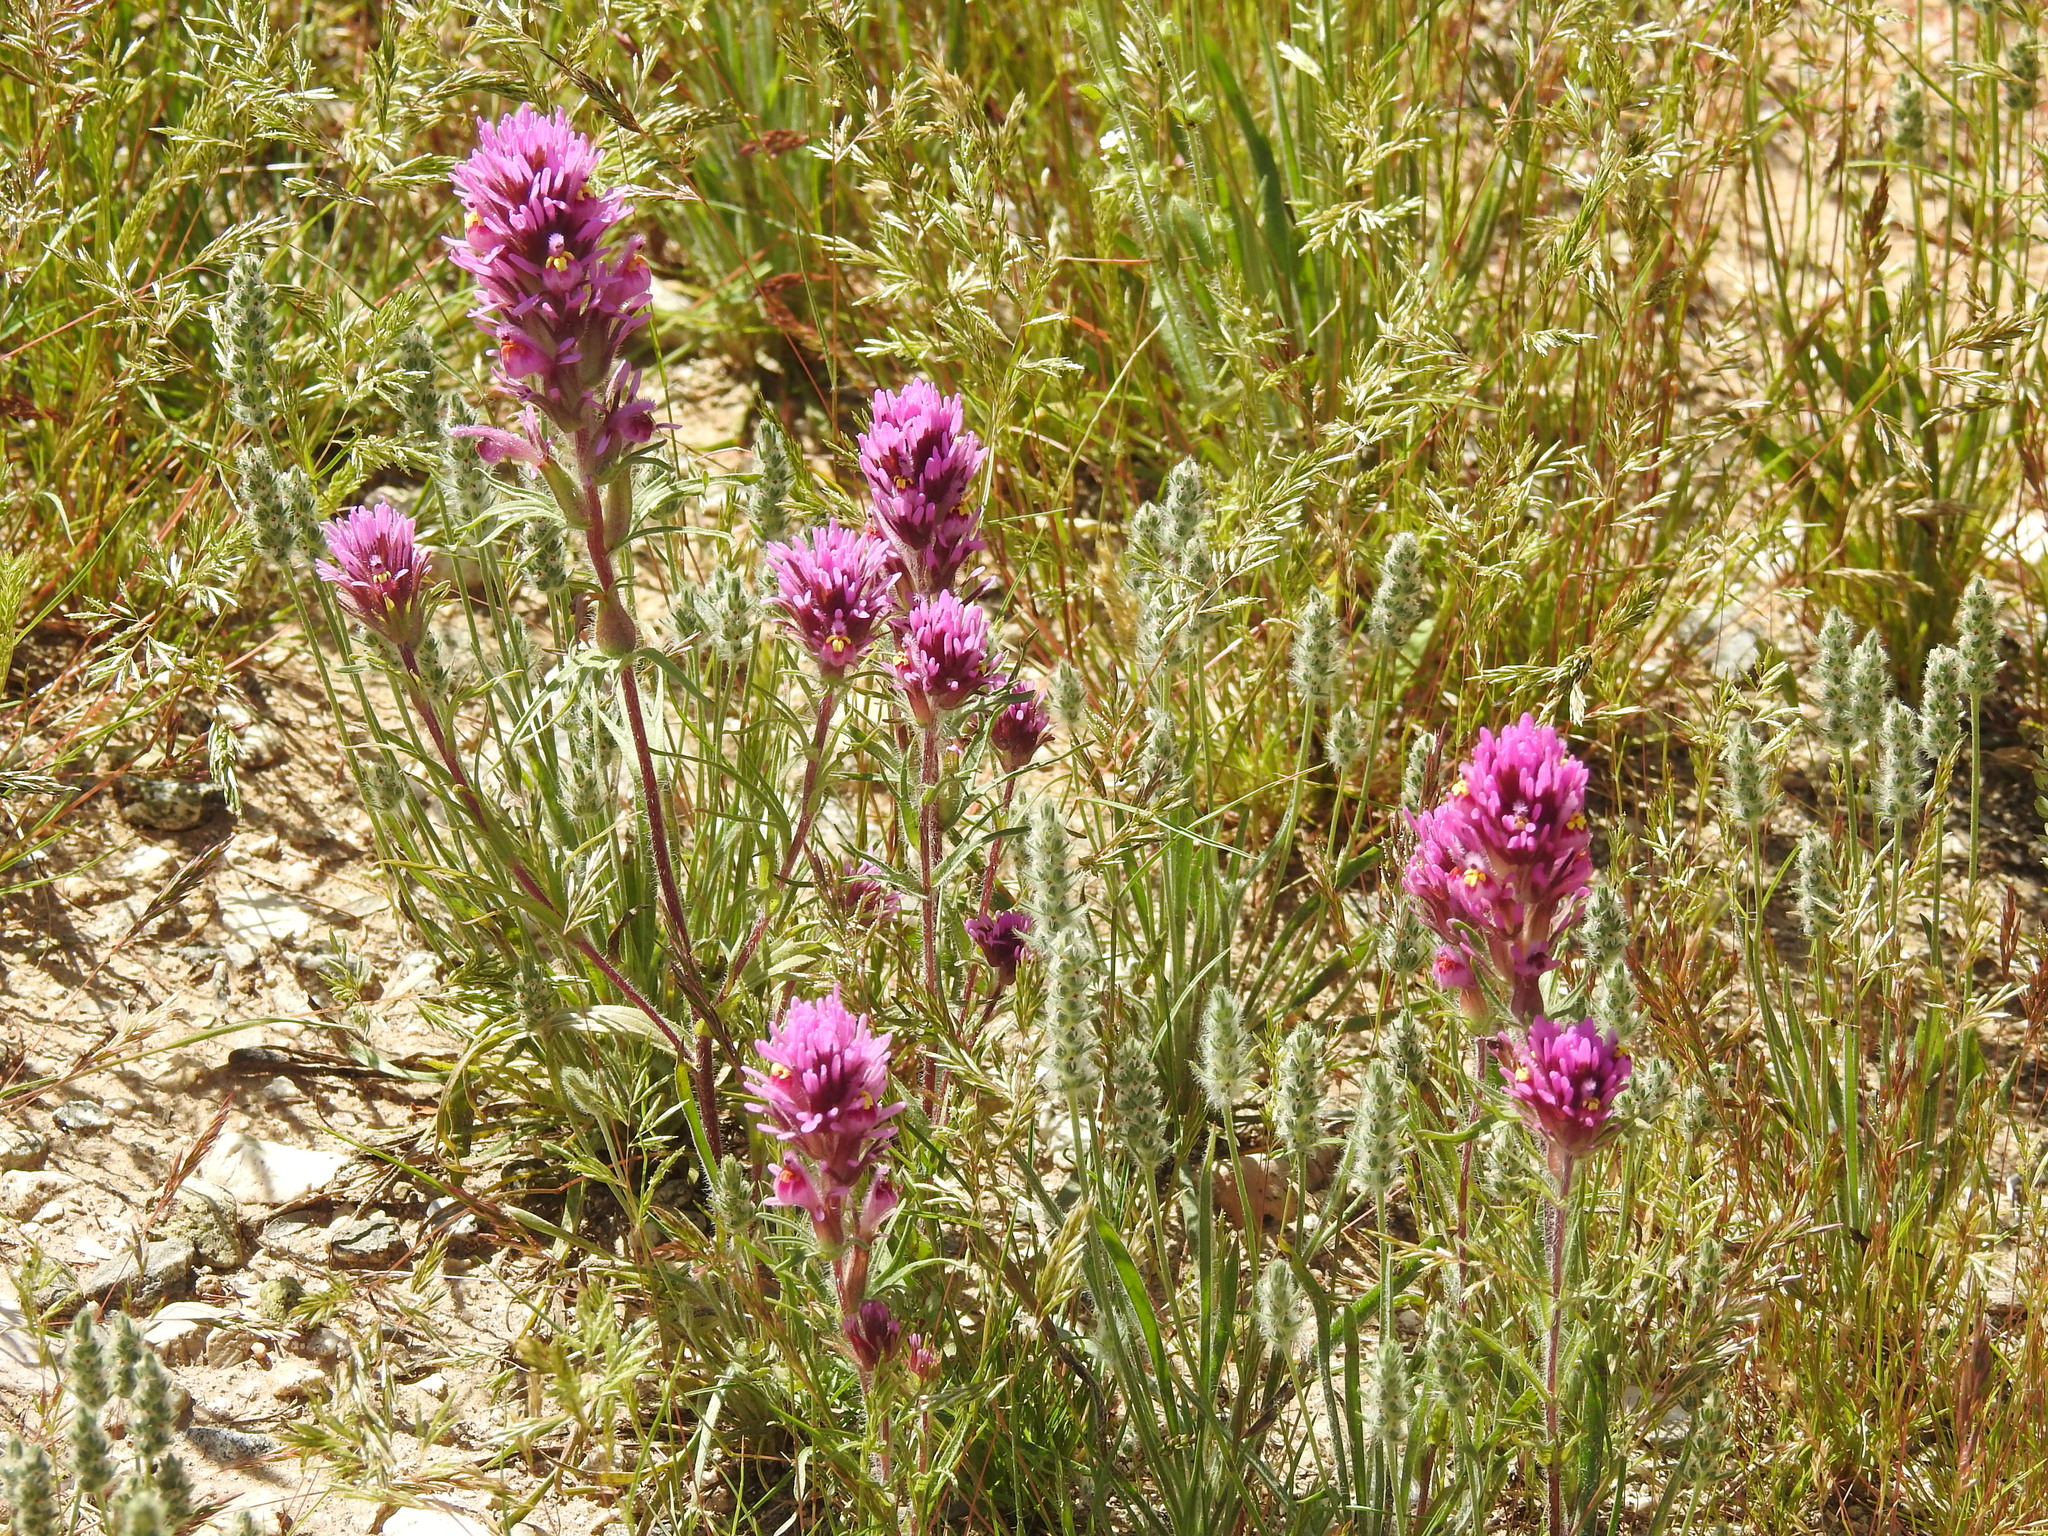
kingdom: Plantae
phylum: Tracheophyta
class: Magnoliopsida
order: Lamiales
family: Orobanchaceae
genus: Castilleja
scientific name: Castilleja exserta
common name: Purple owl-clover
